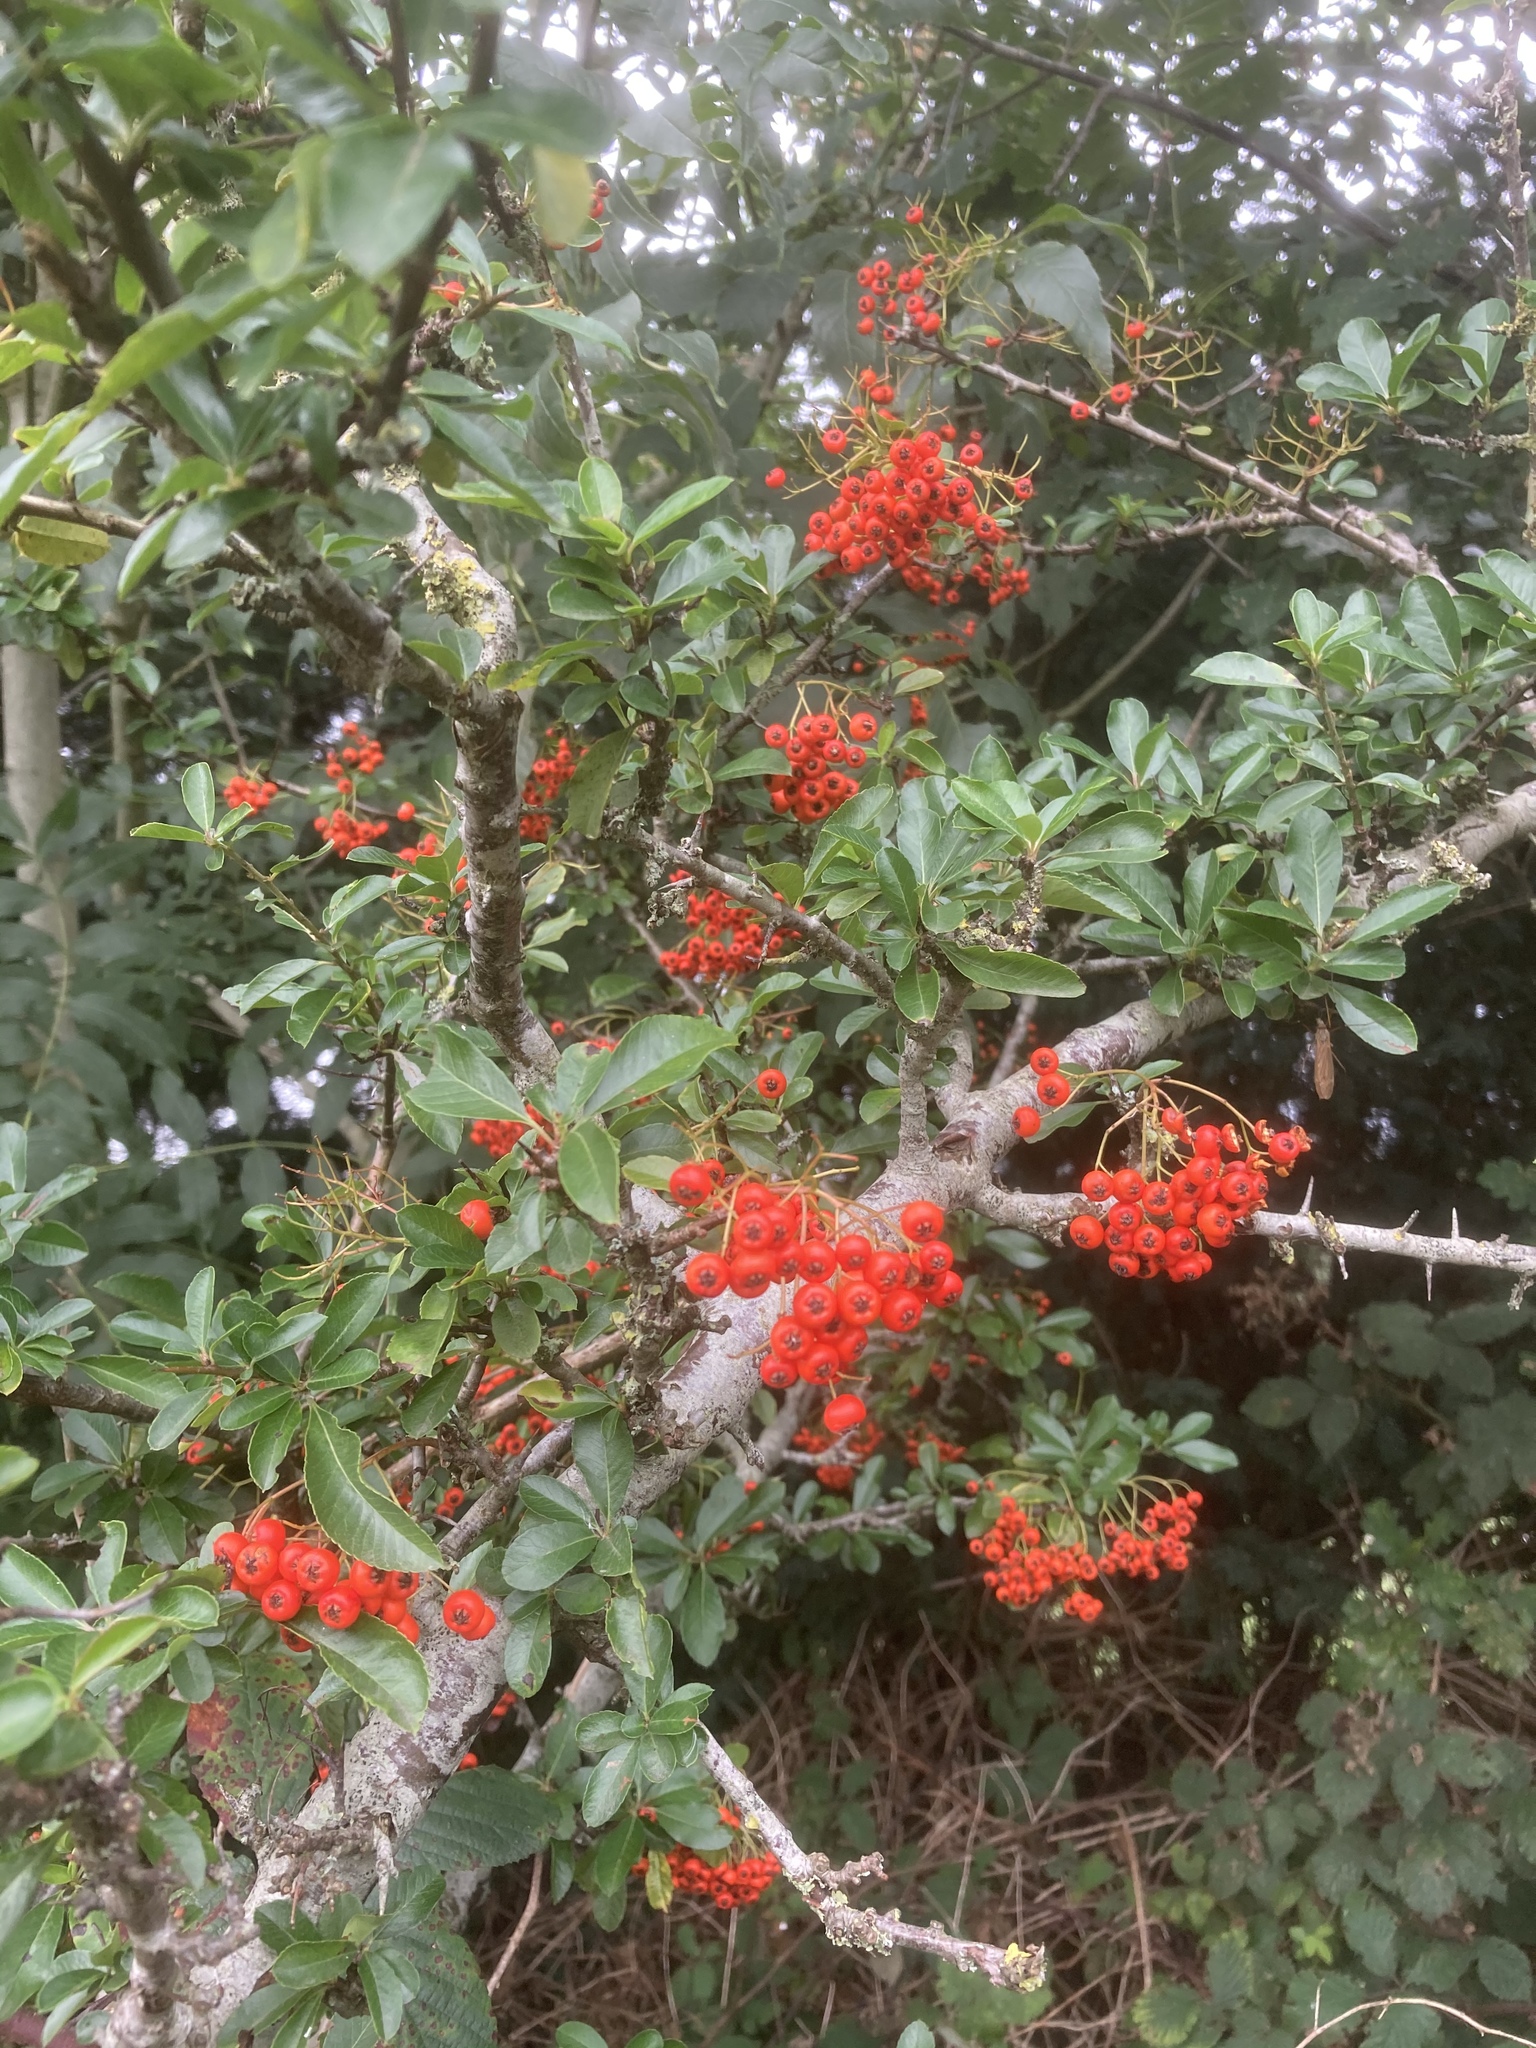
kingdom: Plantae
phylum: Tracheophyta
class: Magnoliopsida
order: Rosales
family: Rosaceae
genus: Pyracantha
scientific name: Pyracantha coccinea
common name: Firethorn
